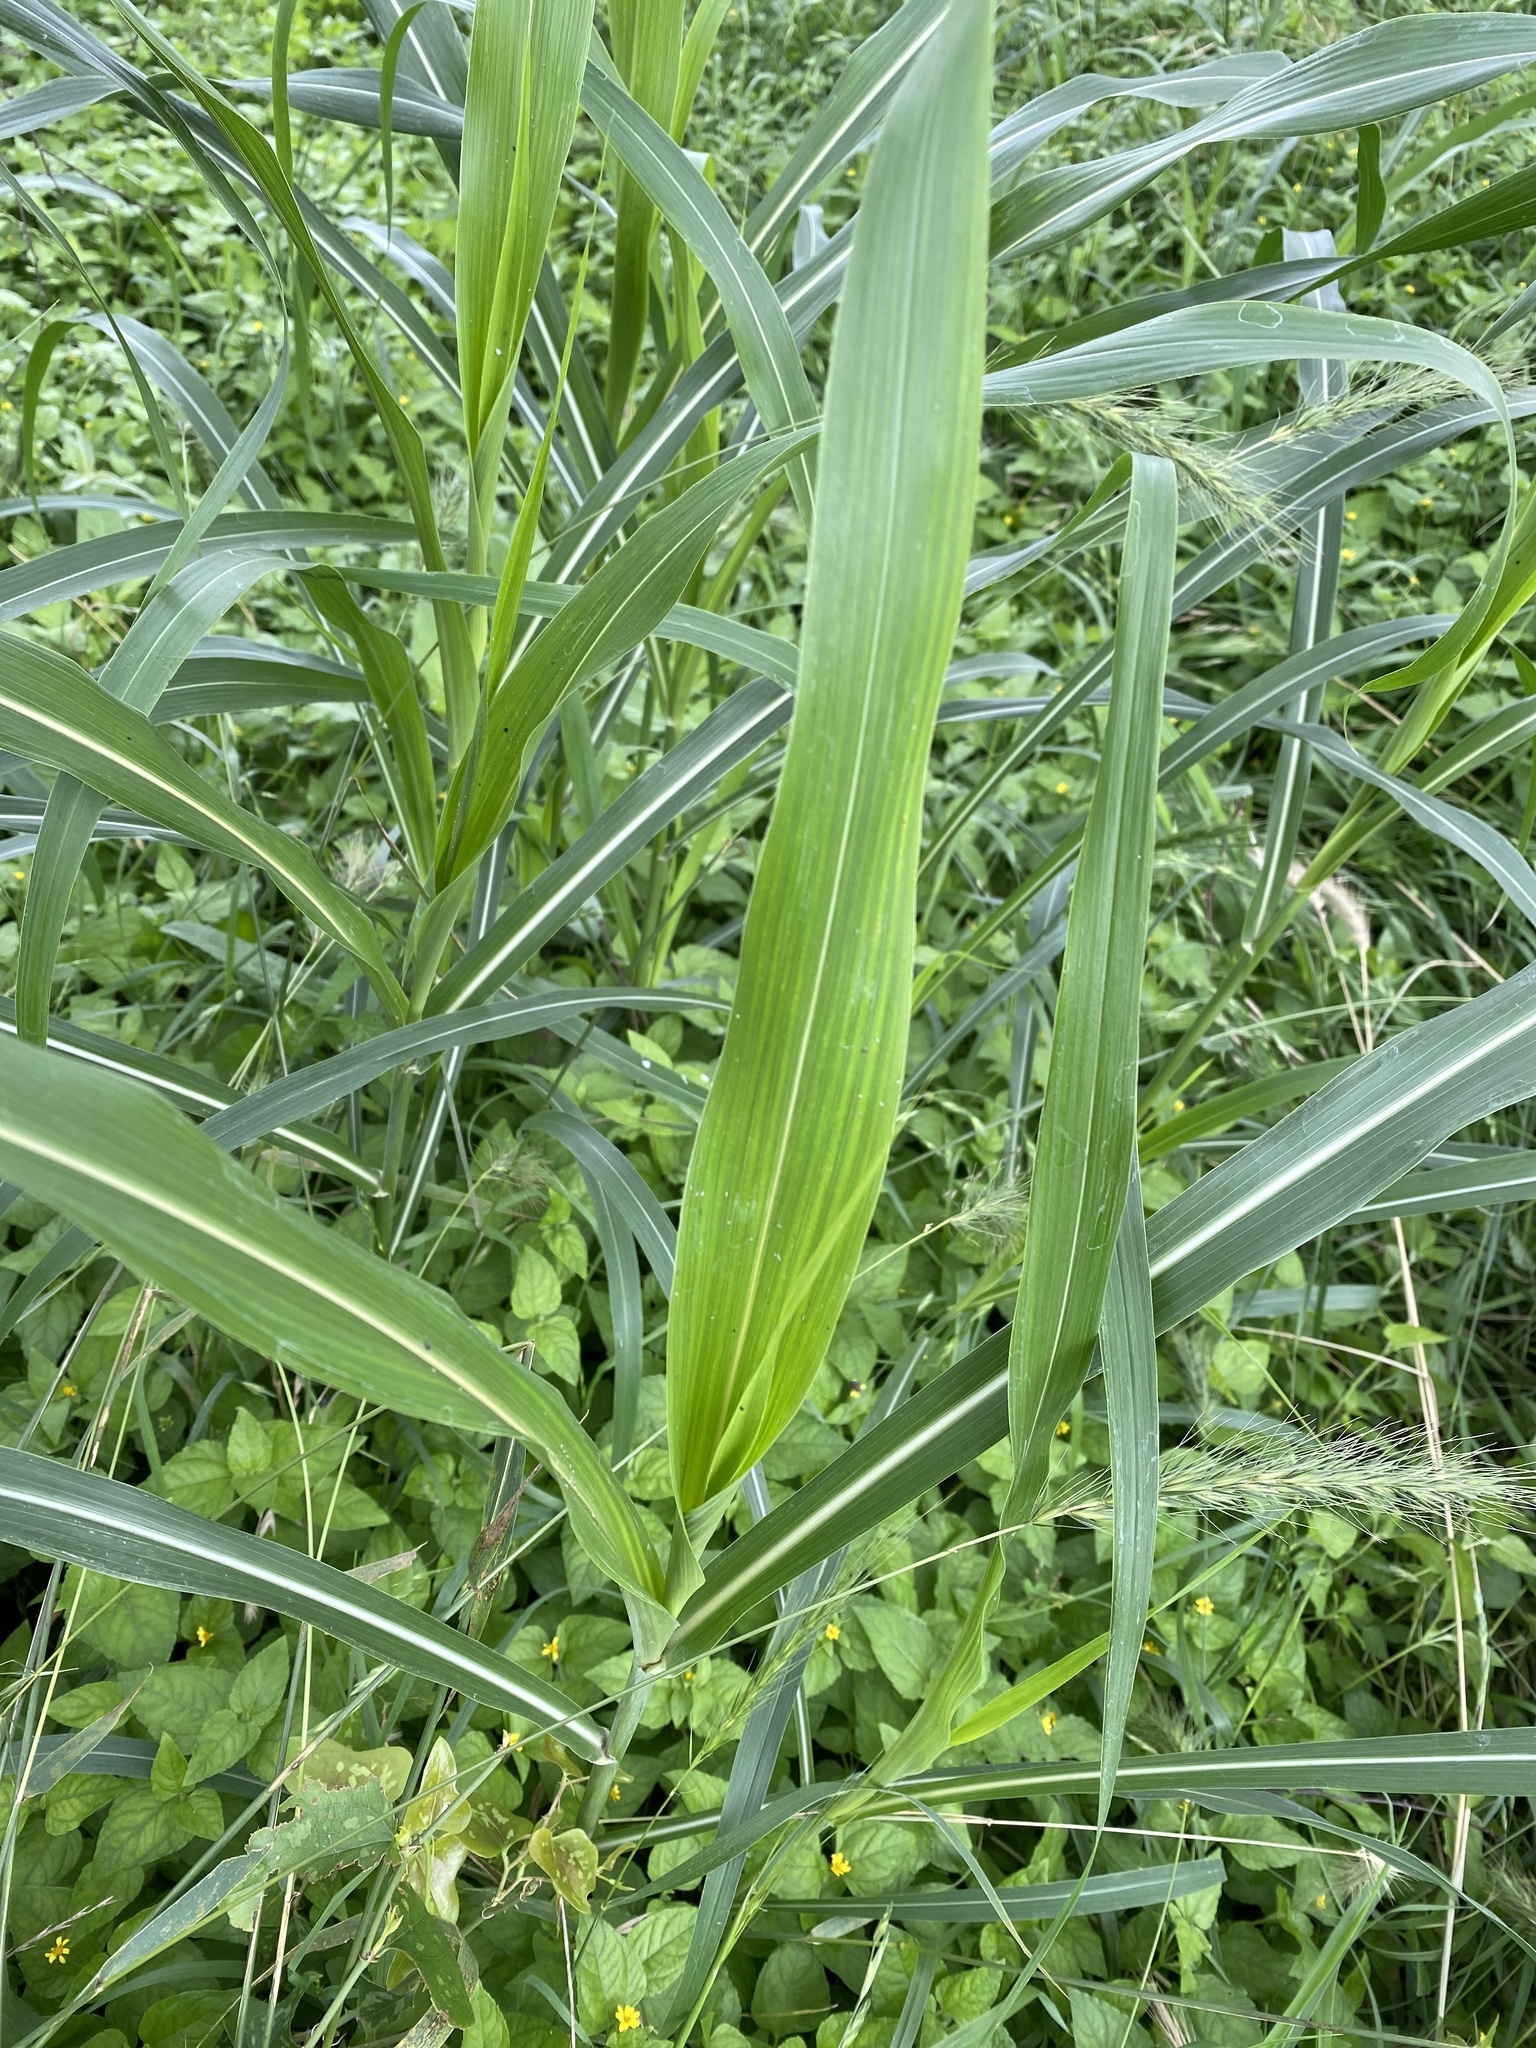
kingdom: Plantae
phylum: Tracheophyta
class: Liliopsida
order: Poales
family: Poaceae
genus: Sorghum
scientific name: Sorghum halepense
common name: Johnson-grass
